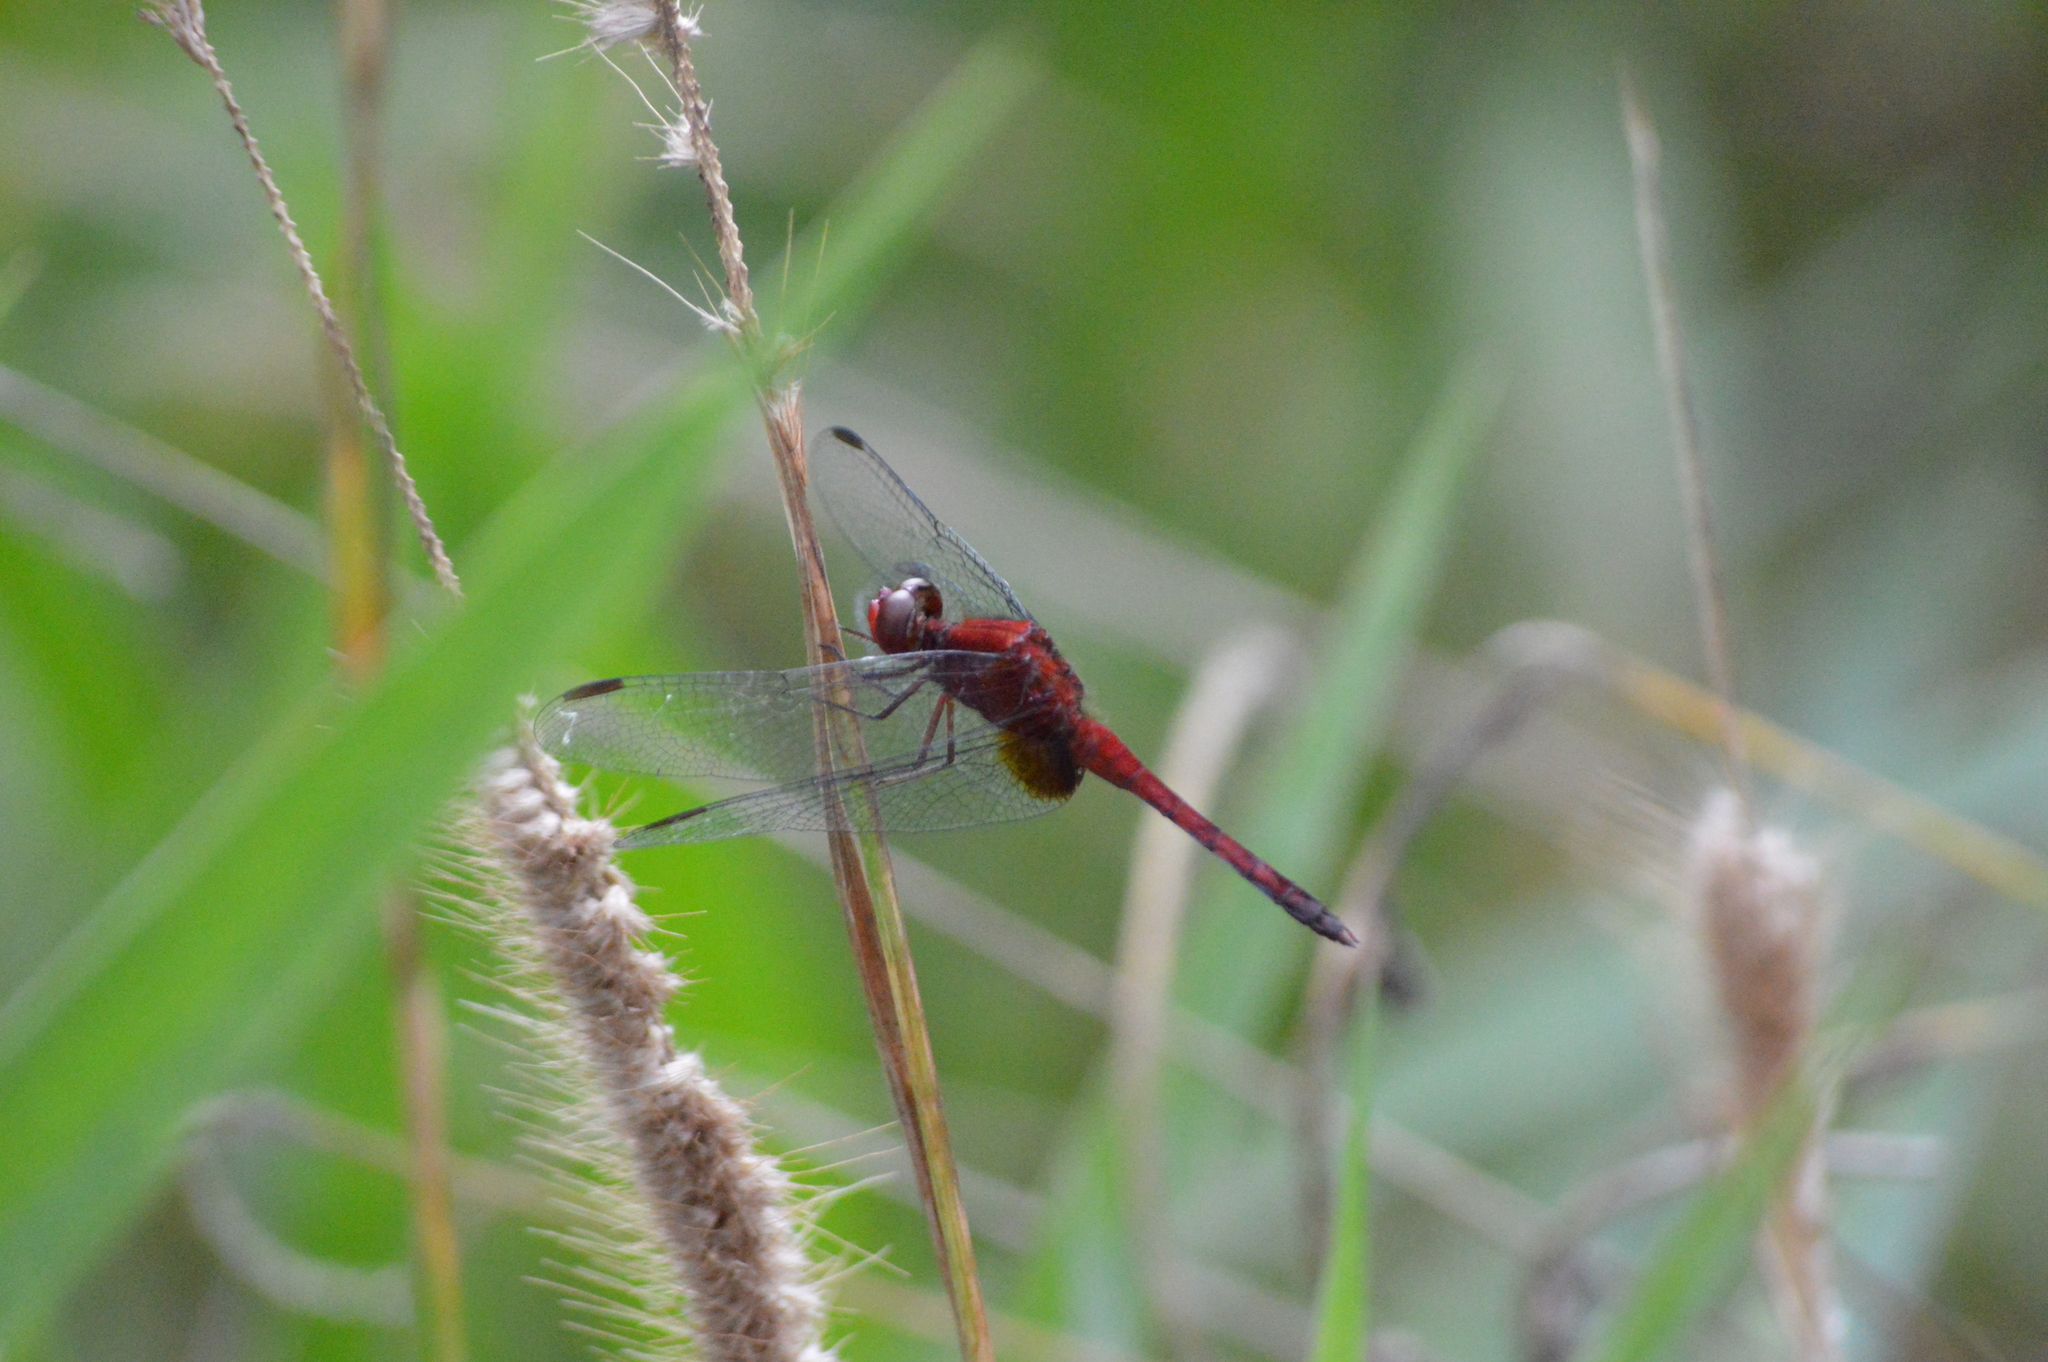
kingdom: Animalia
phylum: Arthropoda
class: Insecta
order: Odonata
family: Libellulidae
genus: Erythrodiplax
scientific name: Erythrodiplax castanea
